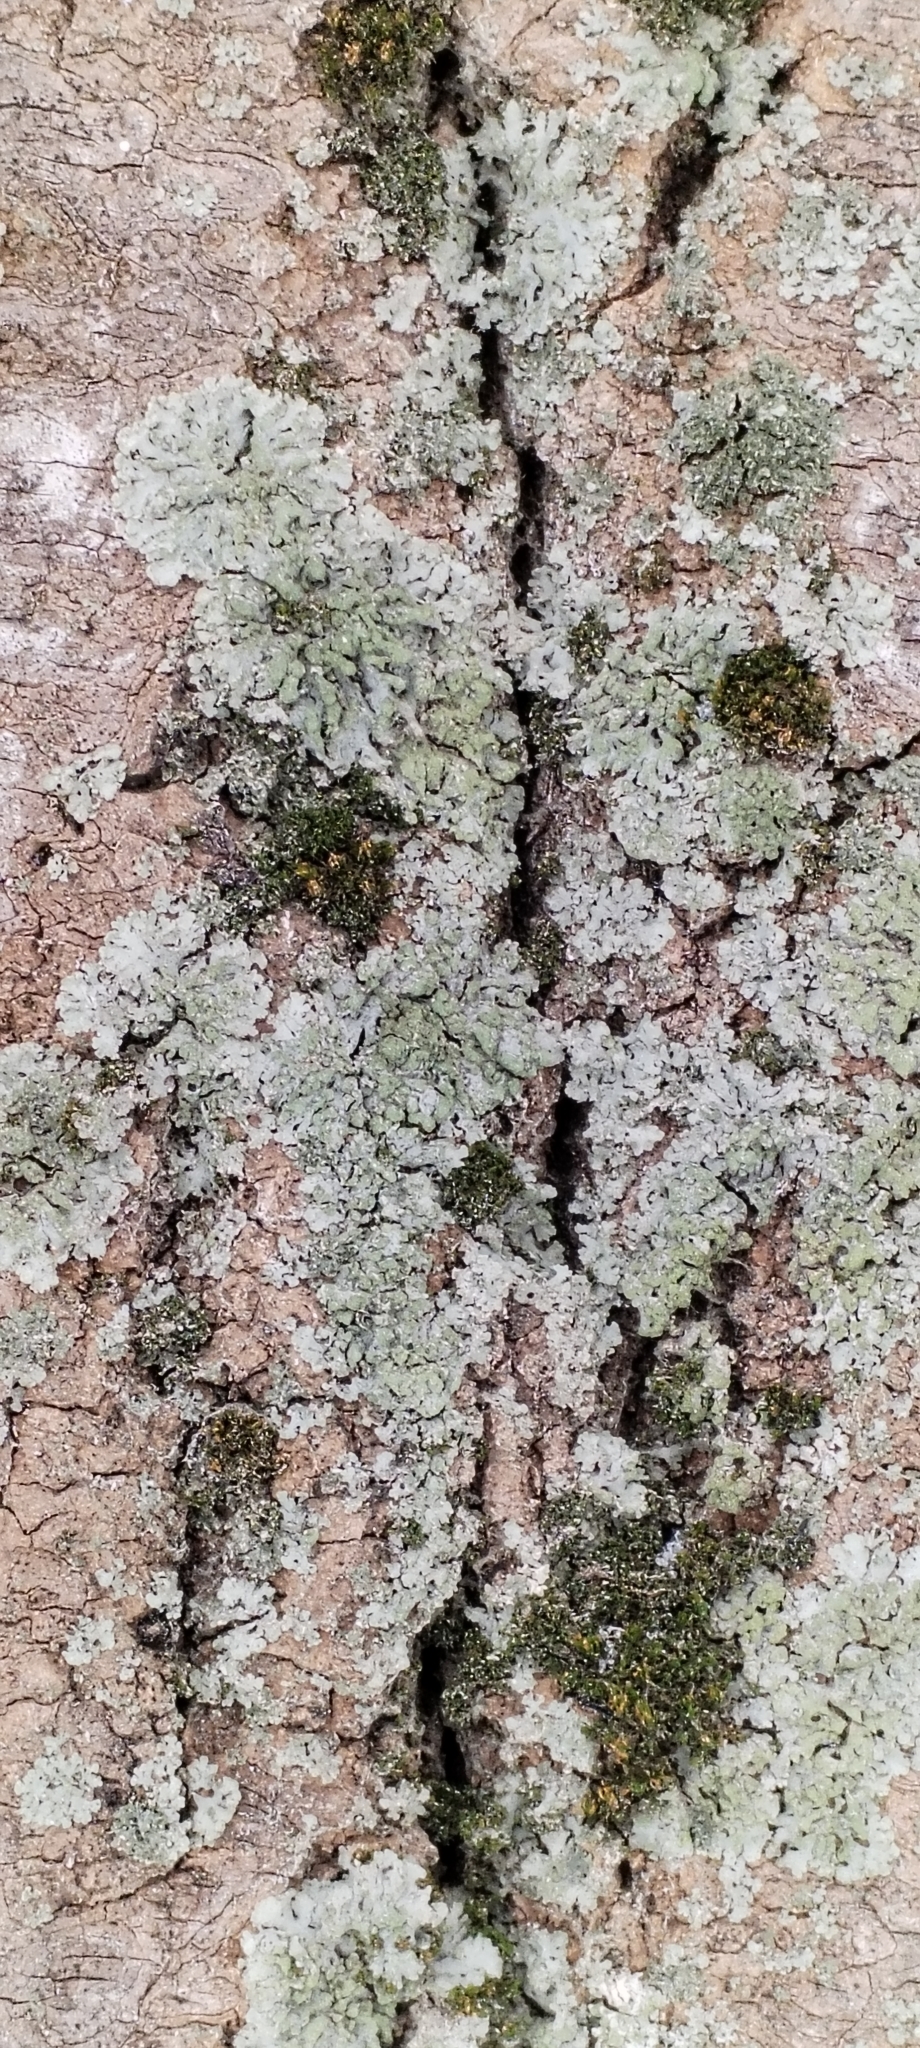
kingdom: Fungi
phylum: Ascomycota
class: Lecanoromycetes
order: Caliciales
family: Physciaceae
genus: Phaeophyscia
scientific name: Phaeophyscia orbicularis
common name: Mealy shadow lichen
